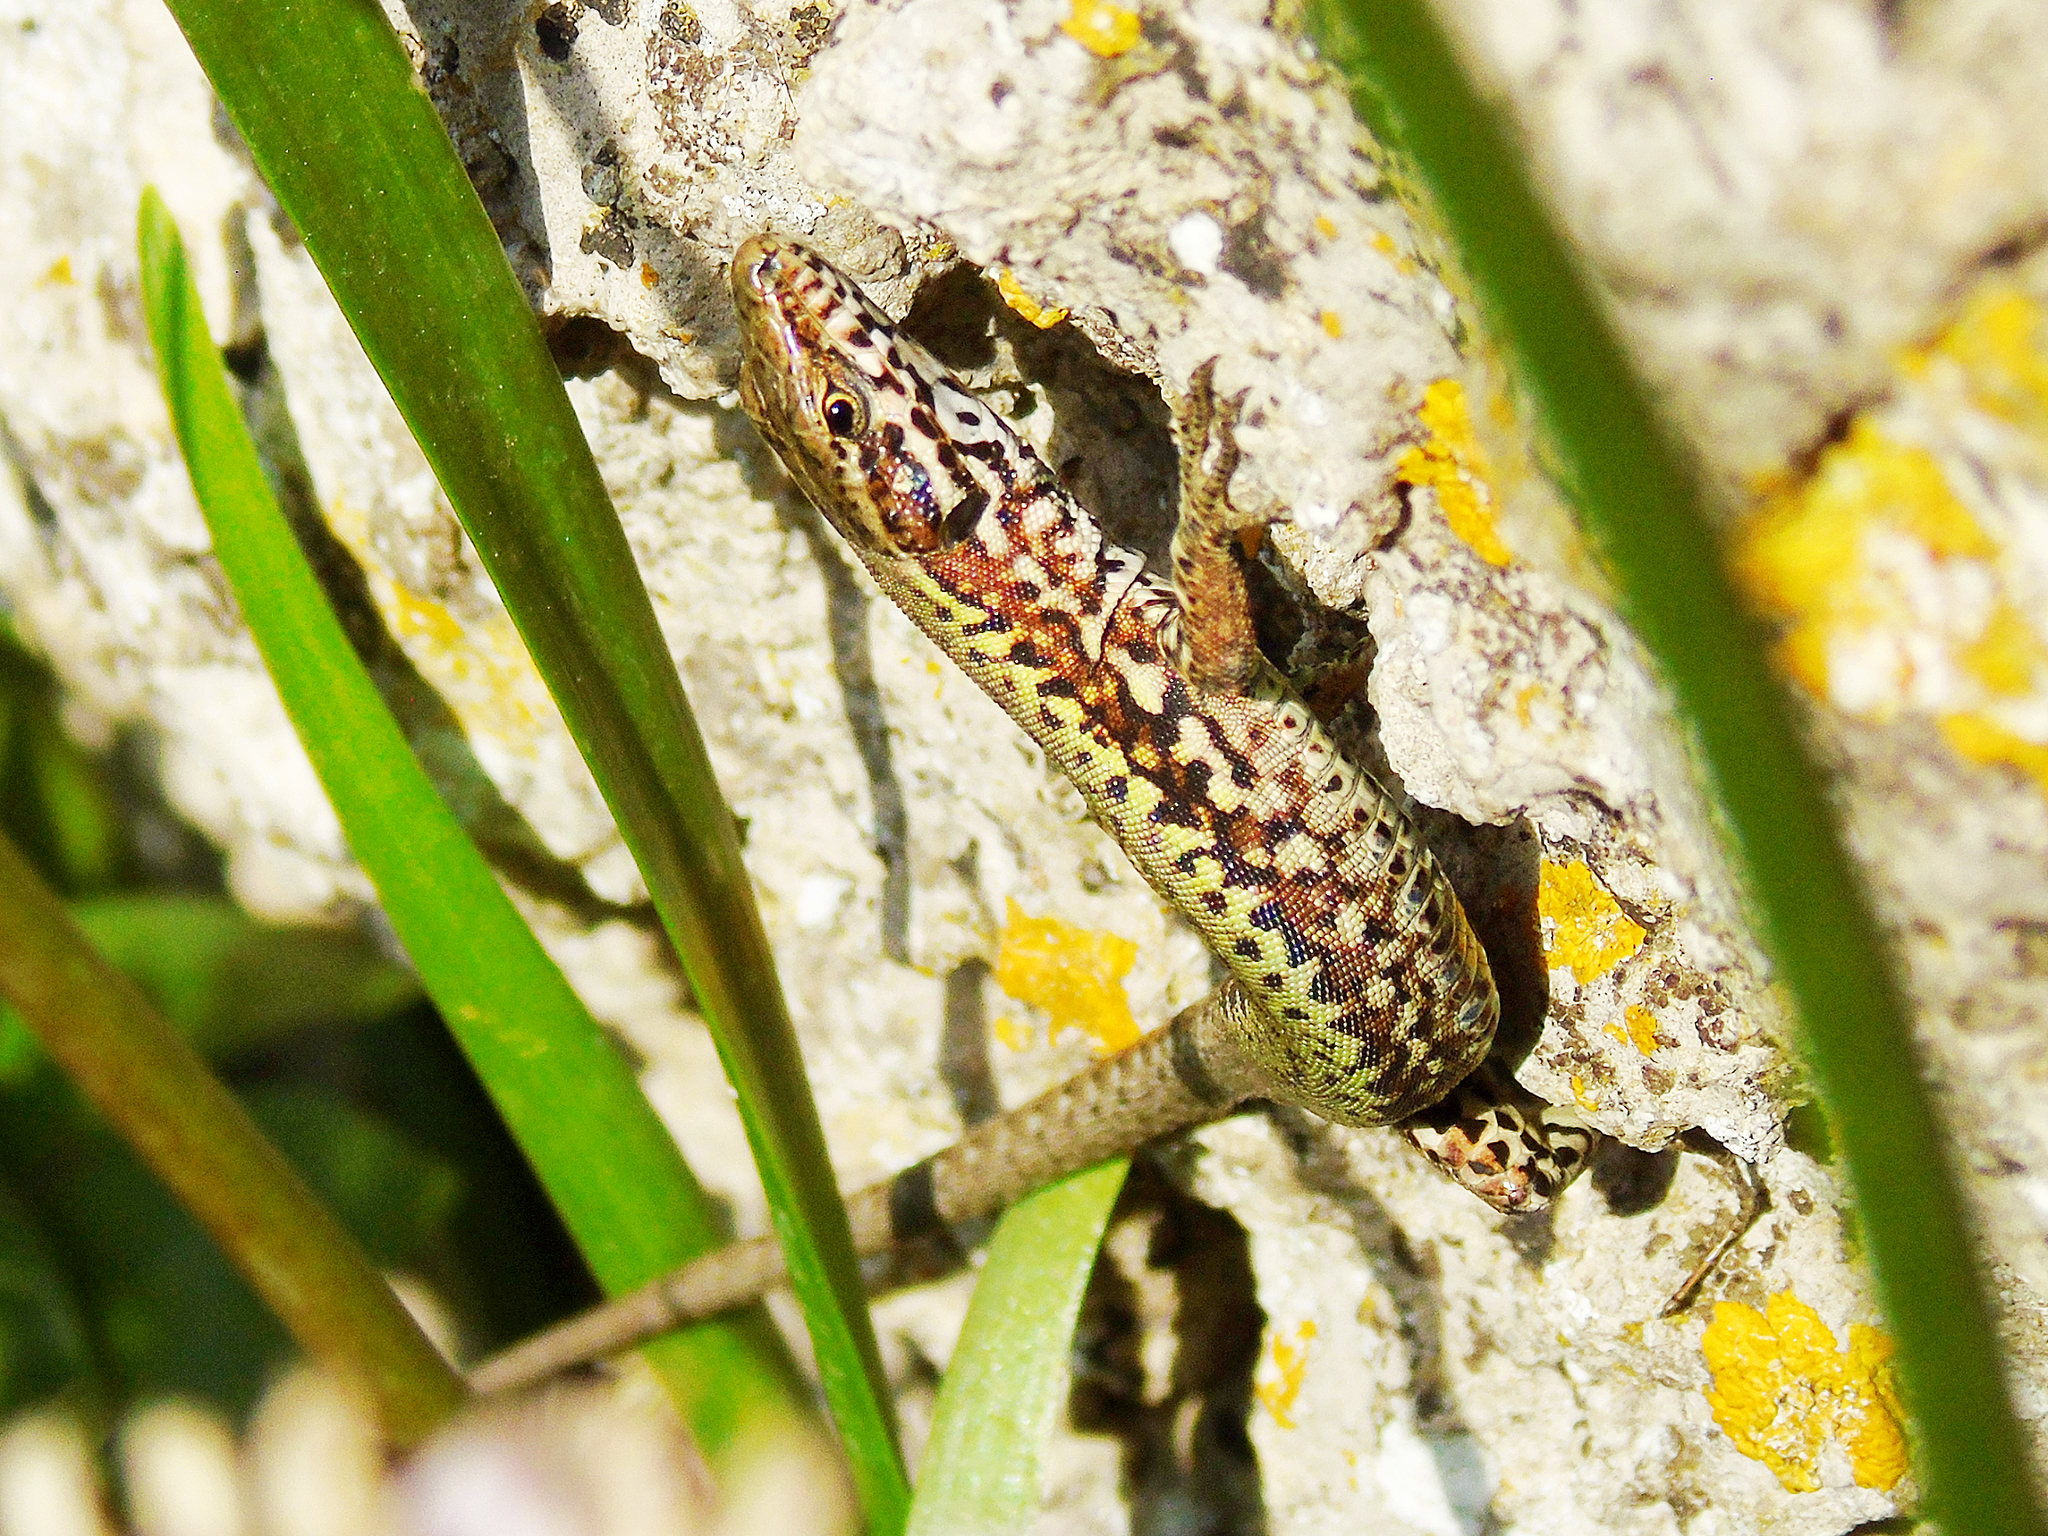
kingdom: Animalia
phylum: Chordata
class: Squamata
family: Lacertidae
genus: Podarcis
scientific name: Podarcis muralis
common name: Common wall lizard
